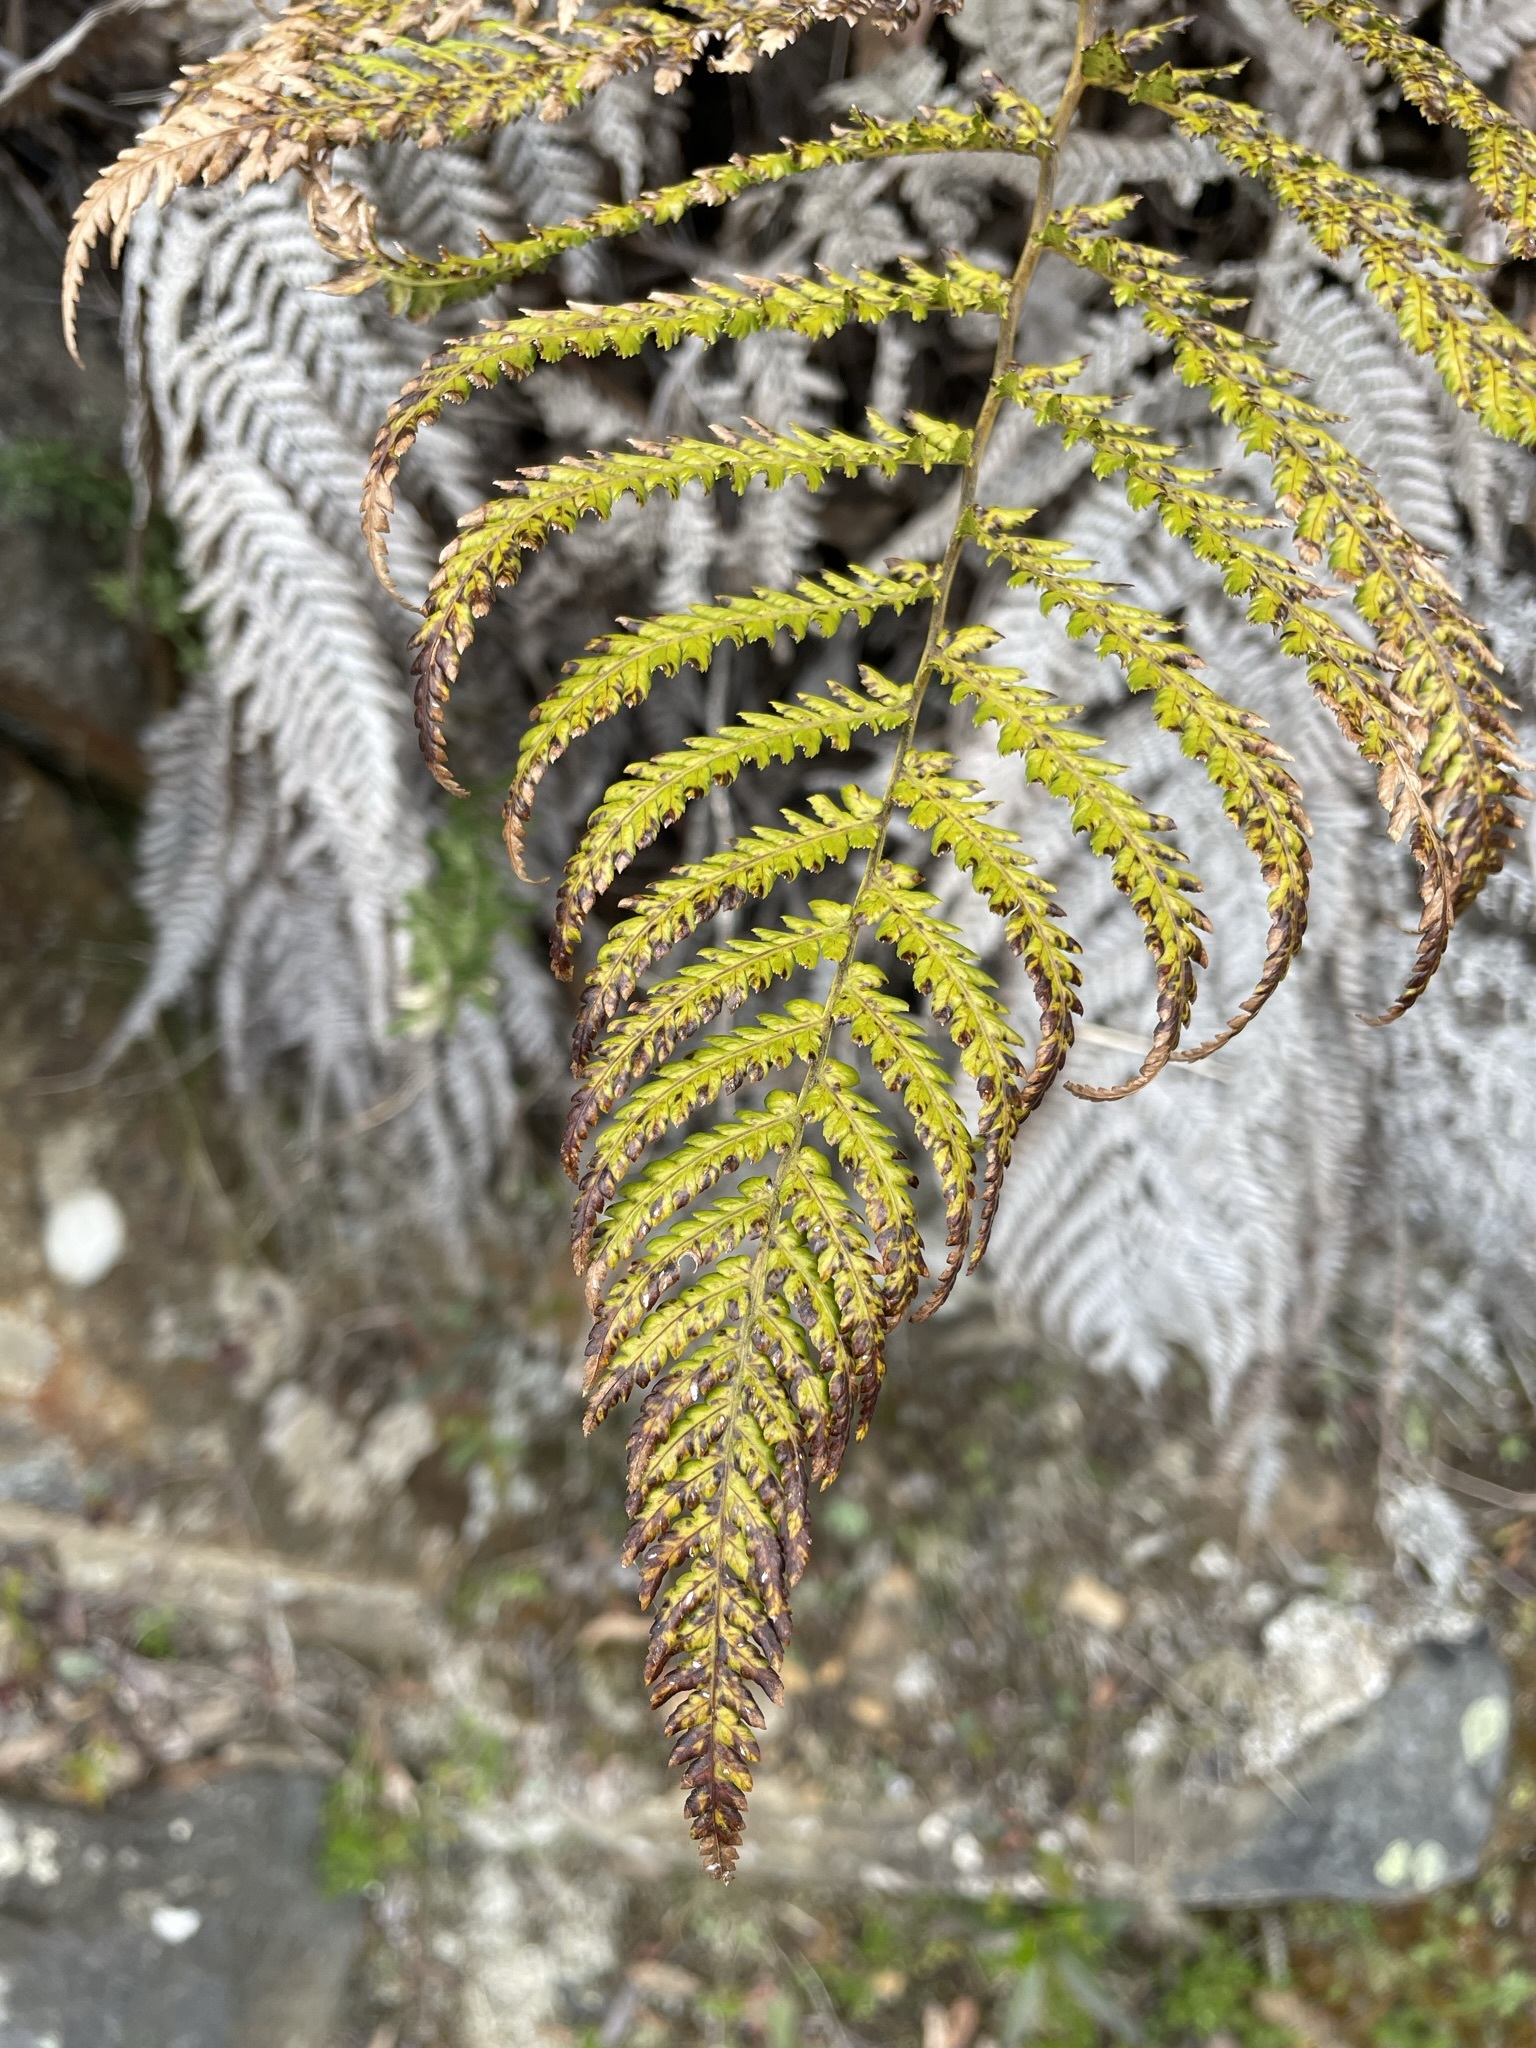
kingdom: Plantae
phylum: Tracheophyta
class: Polypodiopsida
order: Cyatheales
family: Dicksoniaceae
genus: Dicksonia
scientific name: Dicksonia antarctica
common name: Australian treefern
